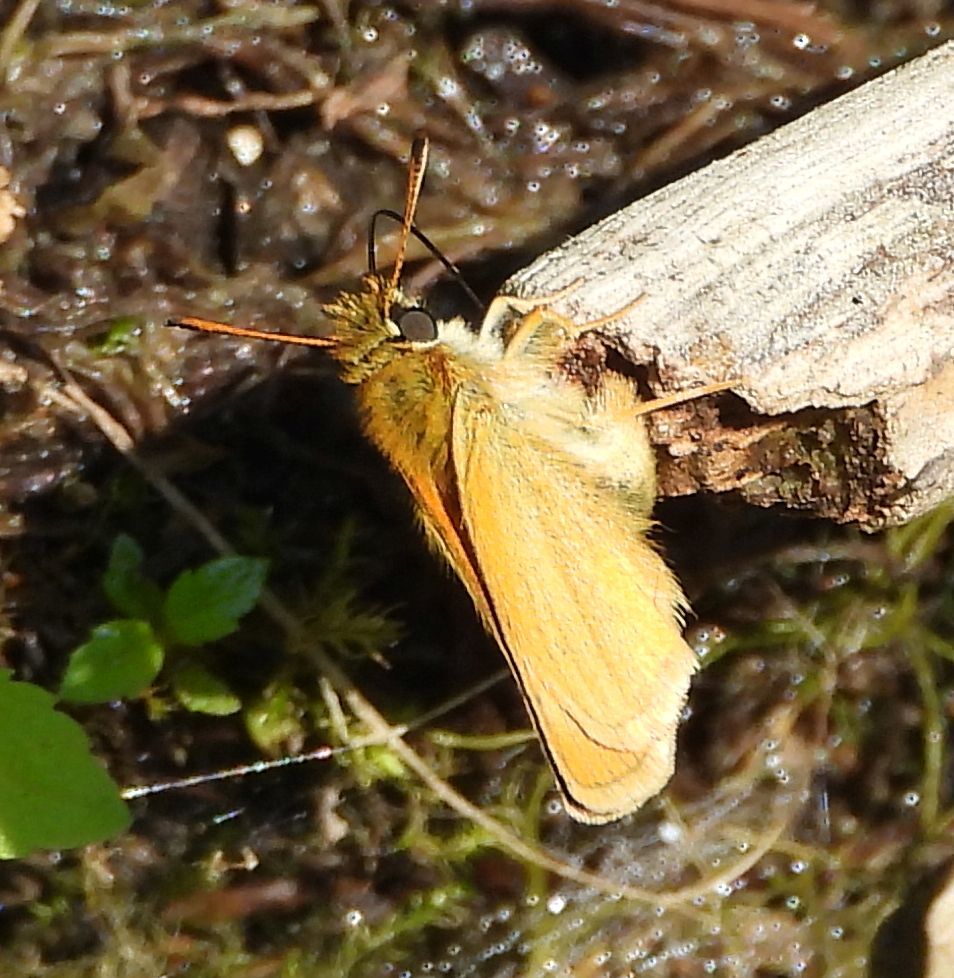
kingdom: Animalia
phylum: Arthropoda
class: Insecta
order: Lepidoptera
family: Hesperiidae
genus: Thymelicus
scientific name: Thymelicus lineola
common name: Essex skipper
